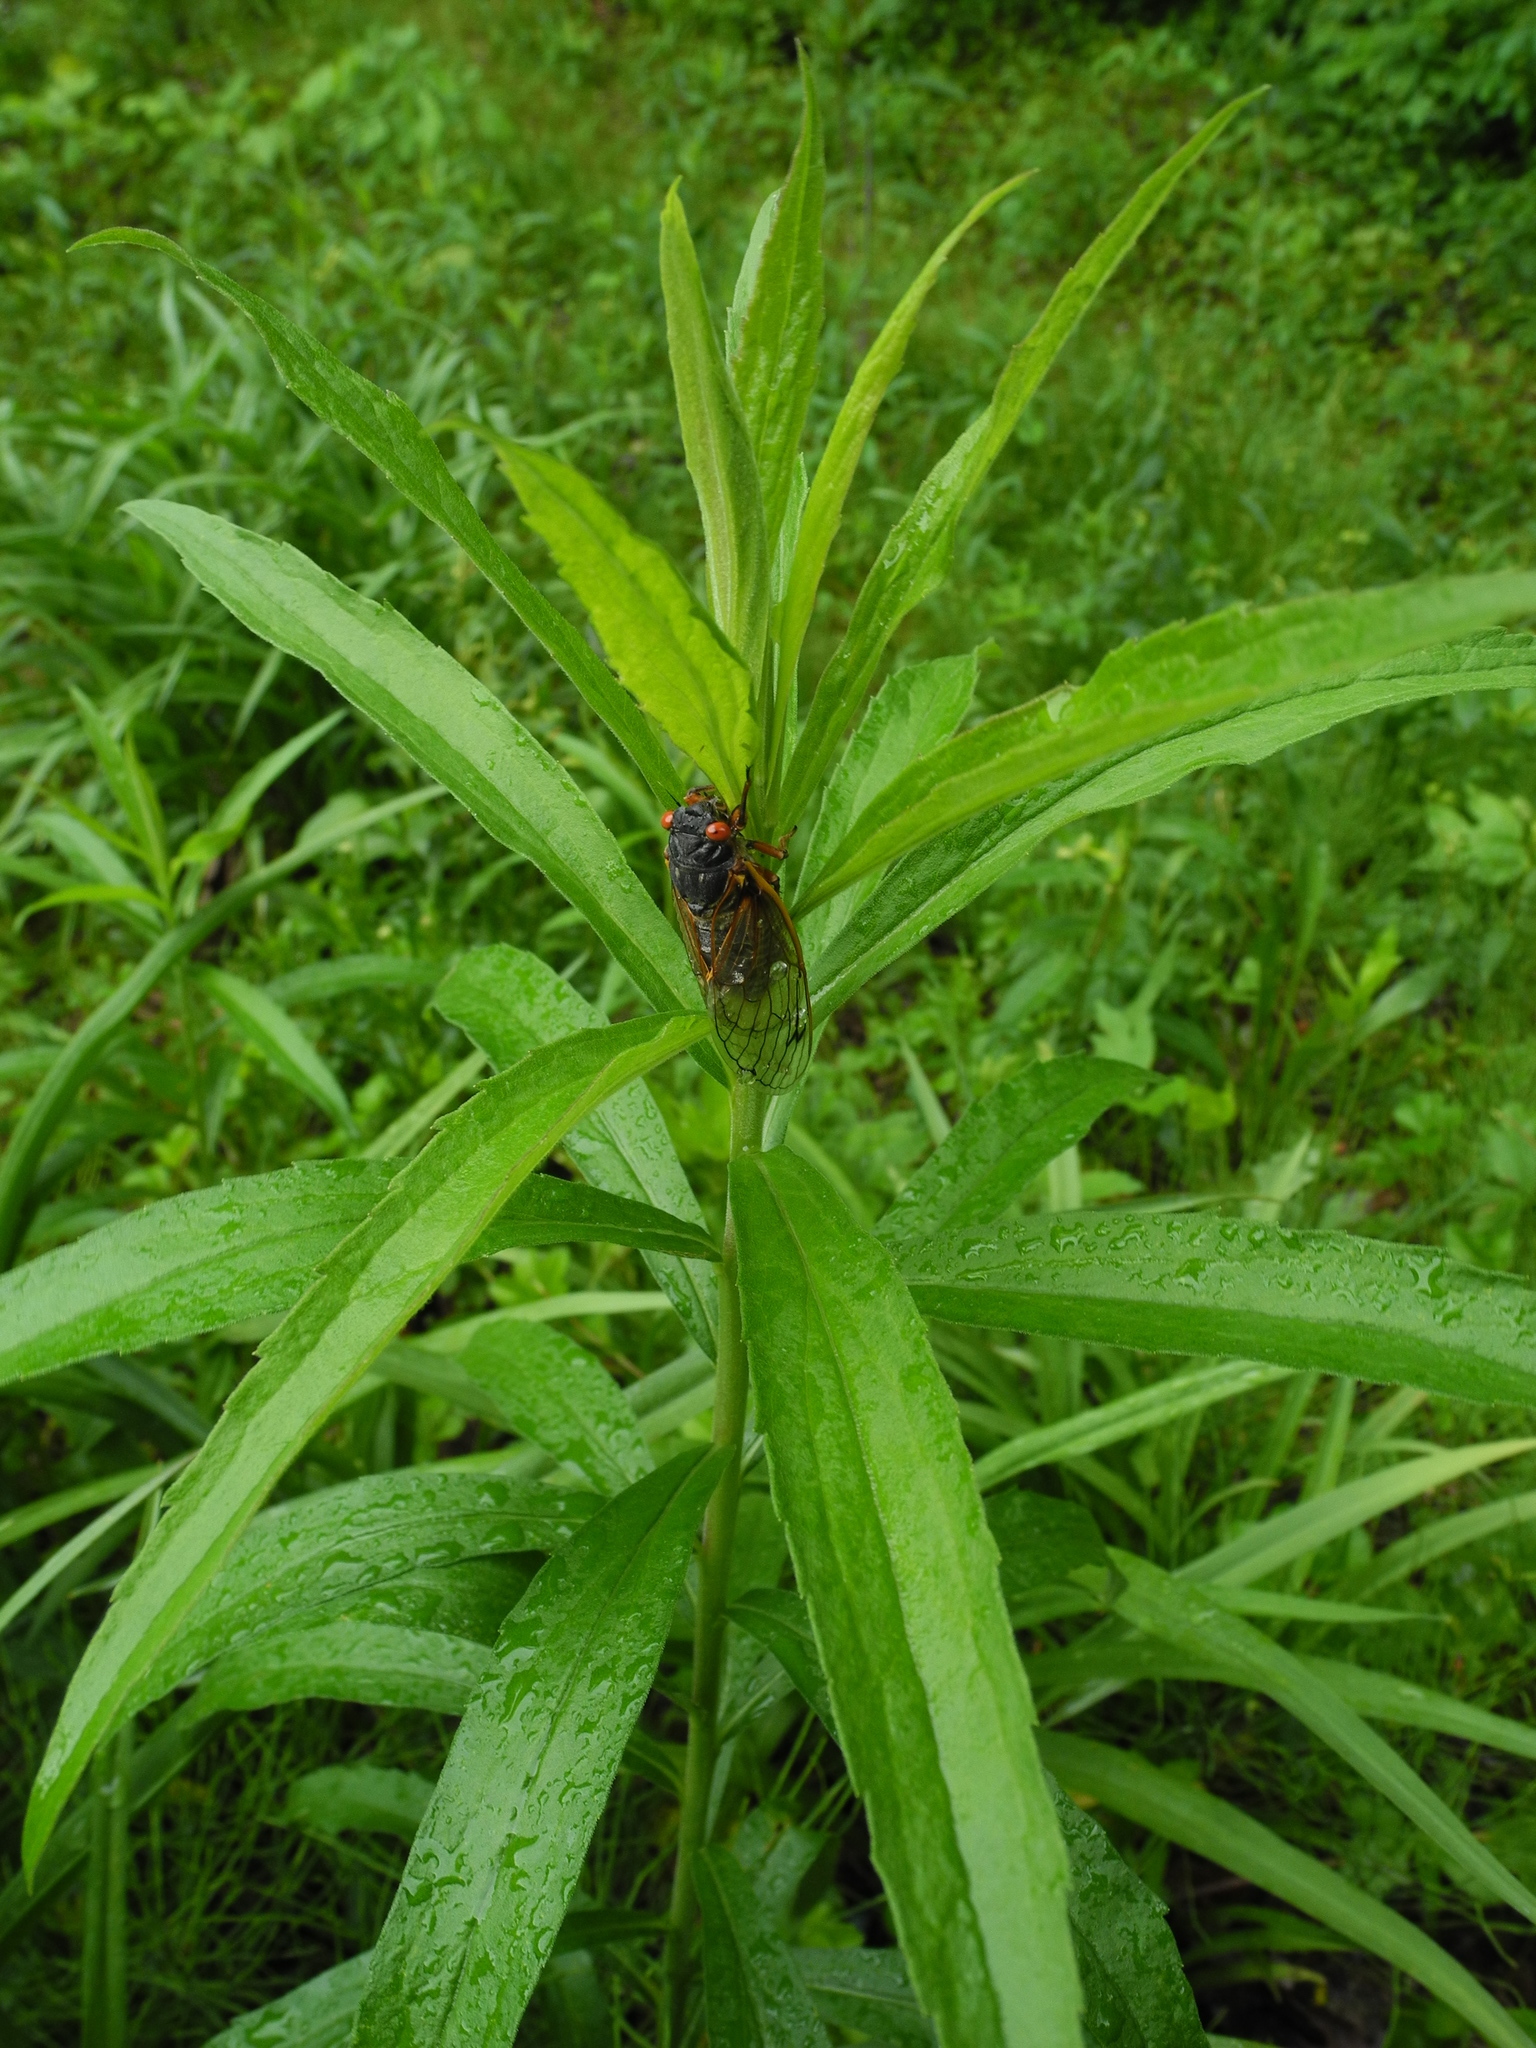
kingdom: Animalia
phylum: Arthropoda
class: Insecta
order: Hemiptera
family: Cicadidae
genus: Magicicada
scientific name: Magicicada septendecim
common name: Periodical cicada
